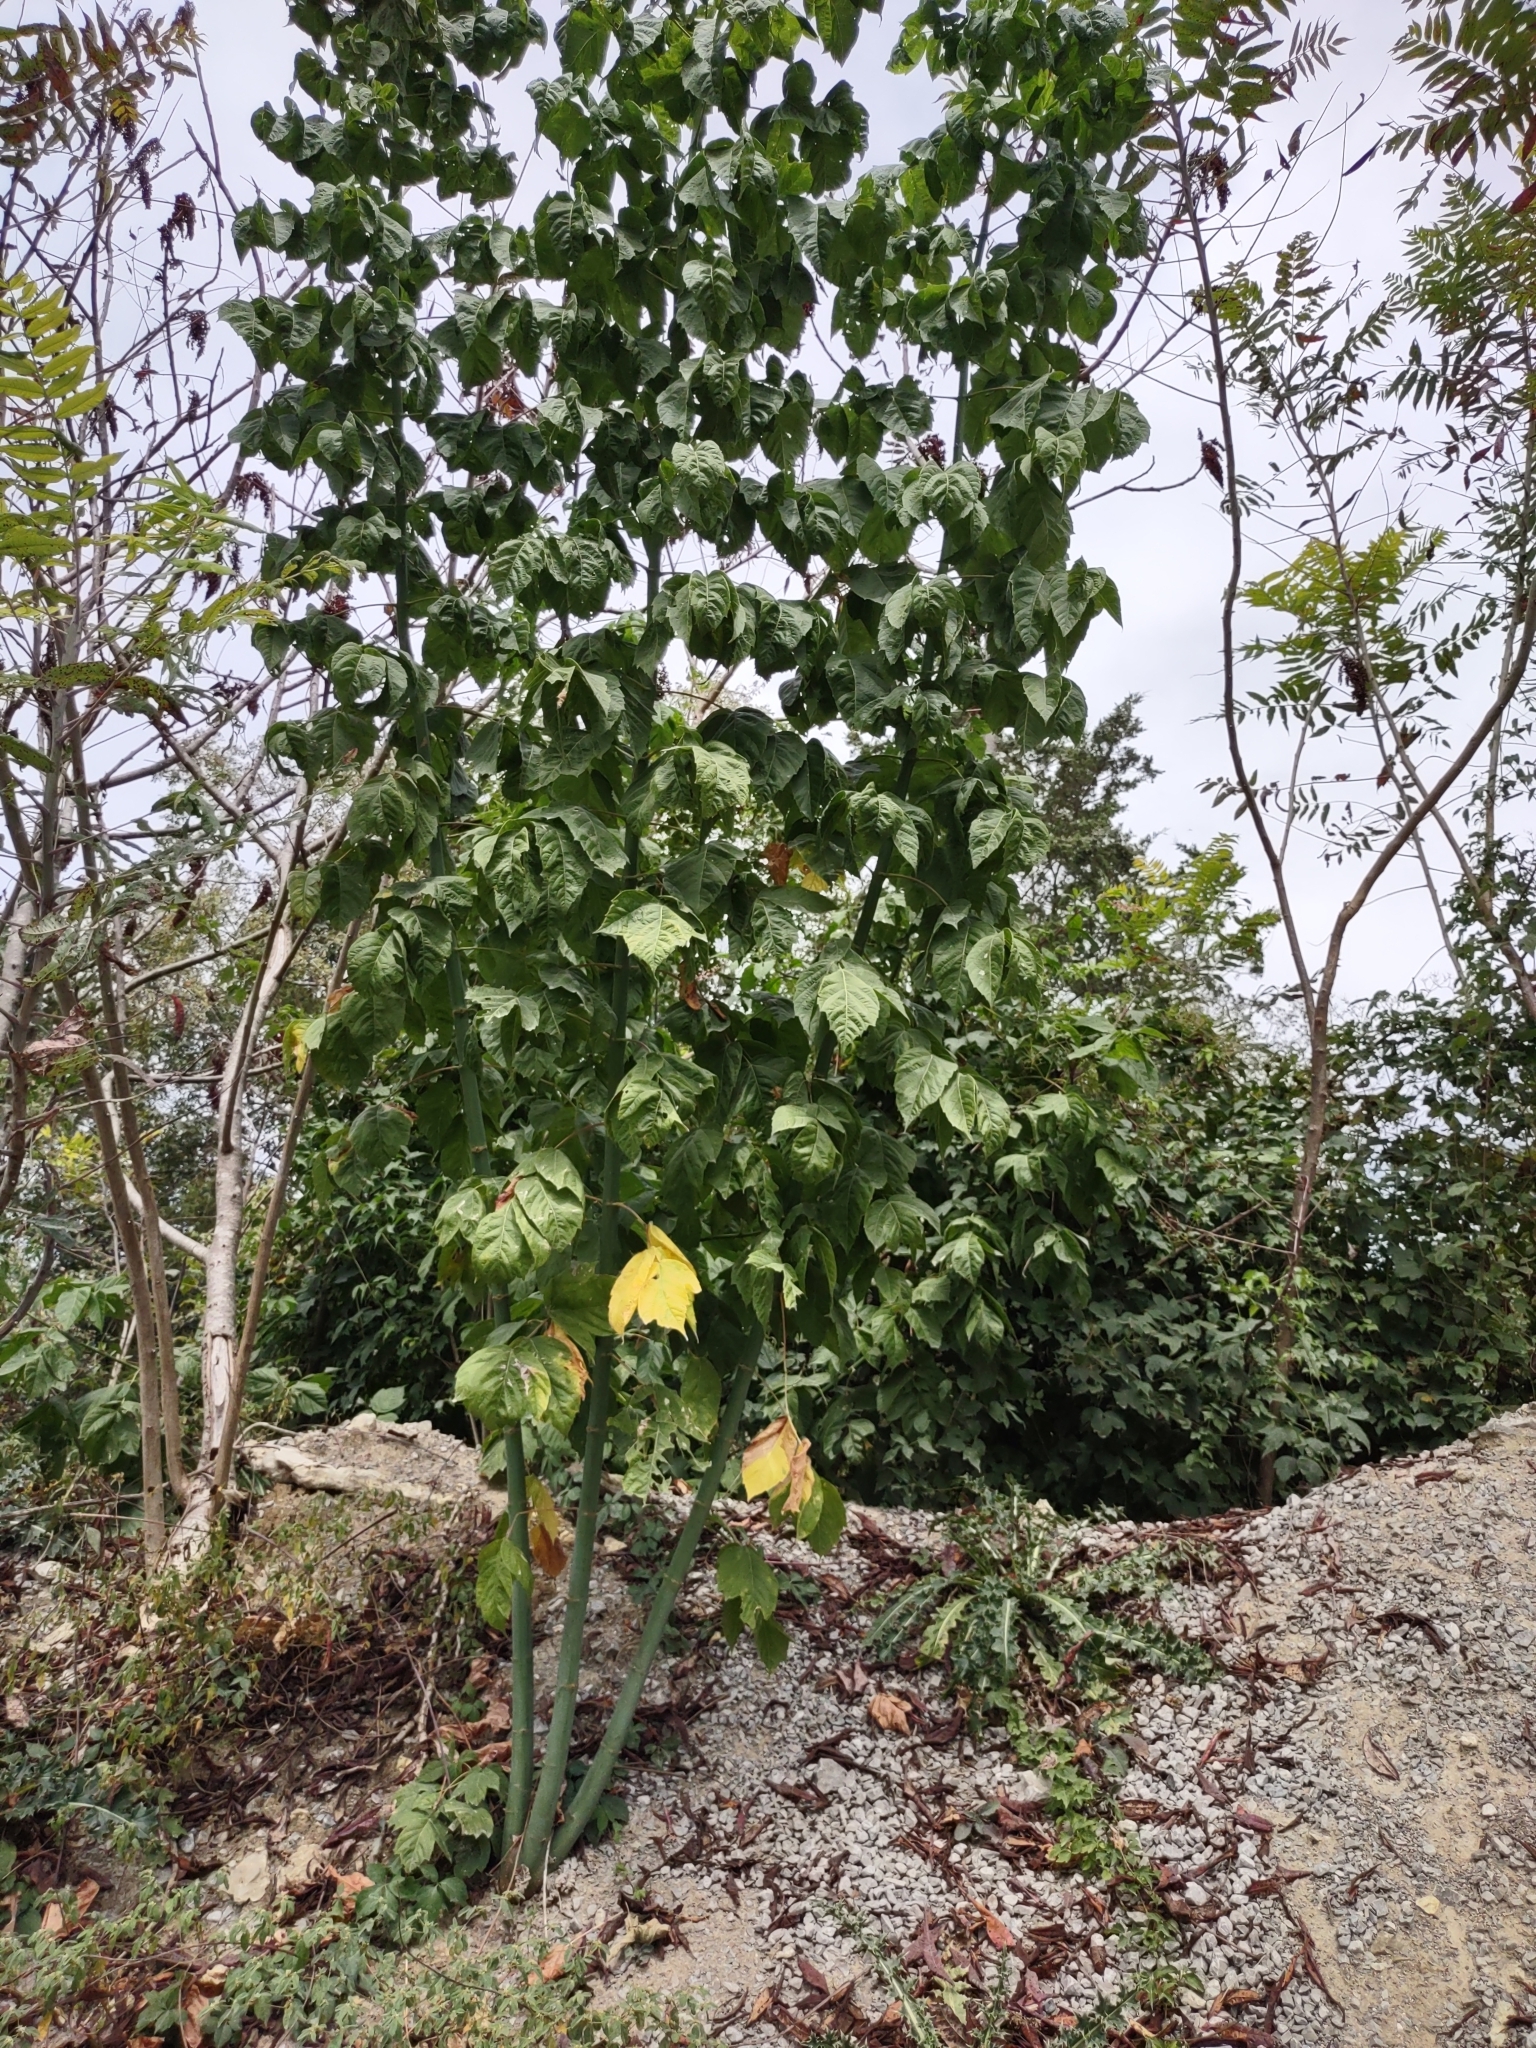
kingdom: Plantae
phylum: Tracheophyta
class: Magnoliopsida
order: Sapindales
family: Sapindaceae
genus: Acer
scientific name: Acer negundo
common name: Ashleaf maple
